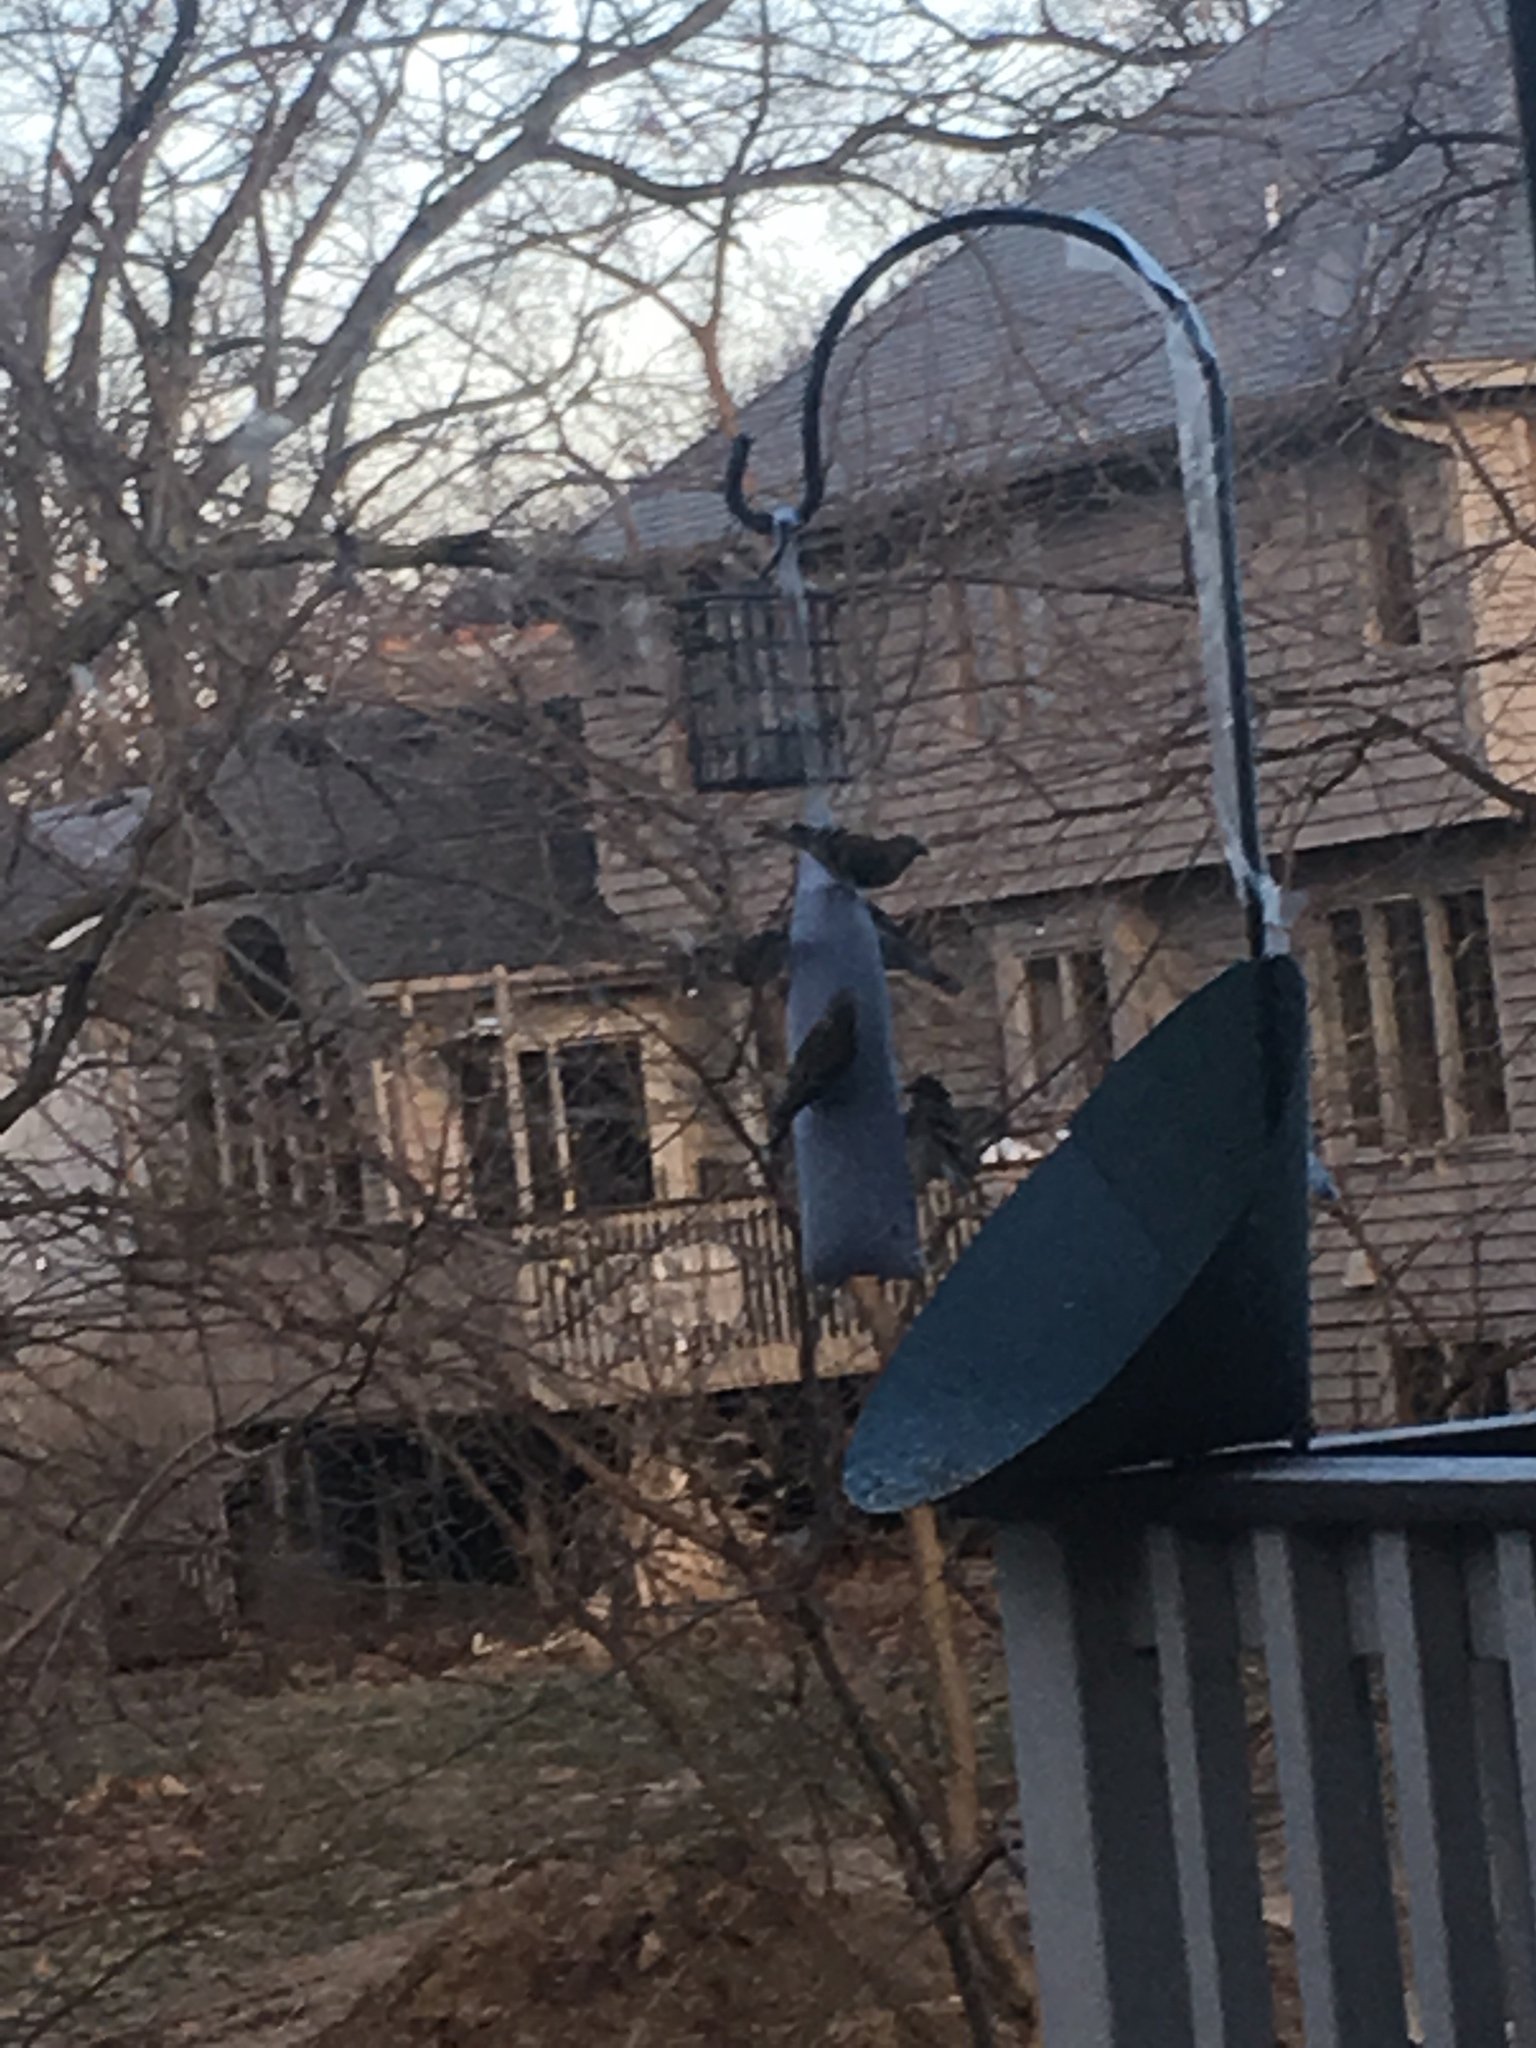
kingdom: Animalia
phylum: Chordata
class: Aves
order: Passeriformes
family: Fringillidae
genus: Spinus
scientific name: Spinus tristis
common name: American goldfinch
